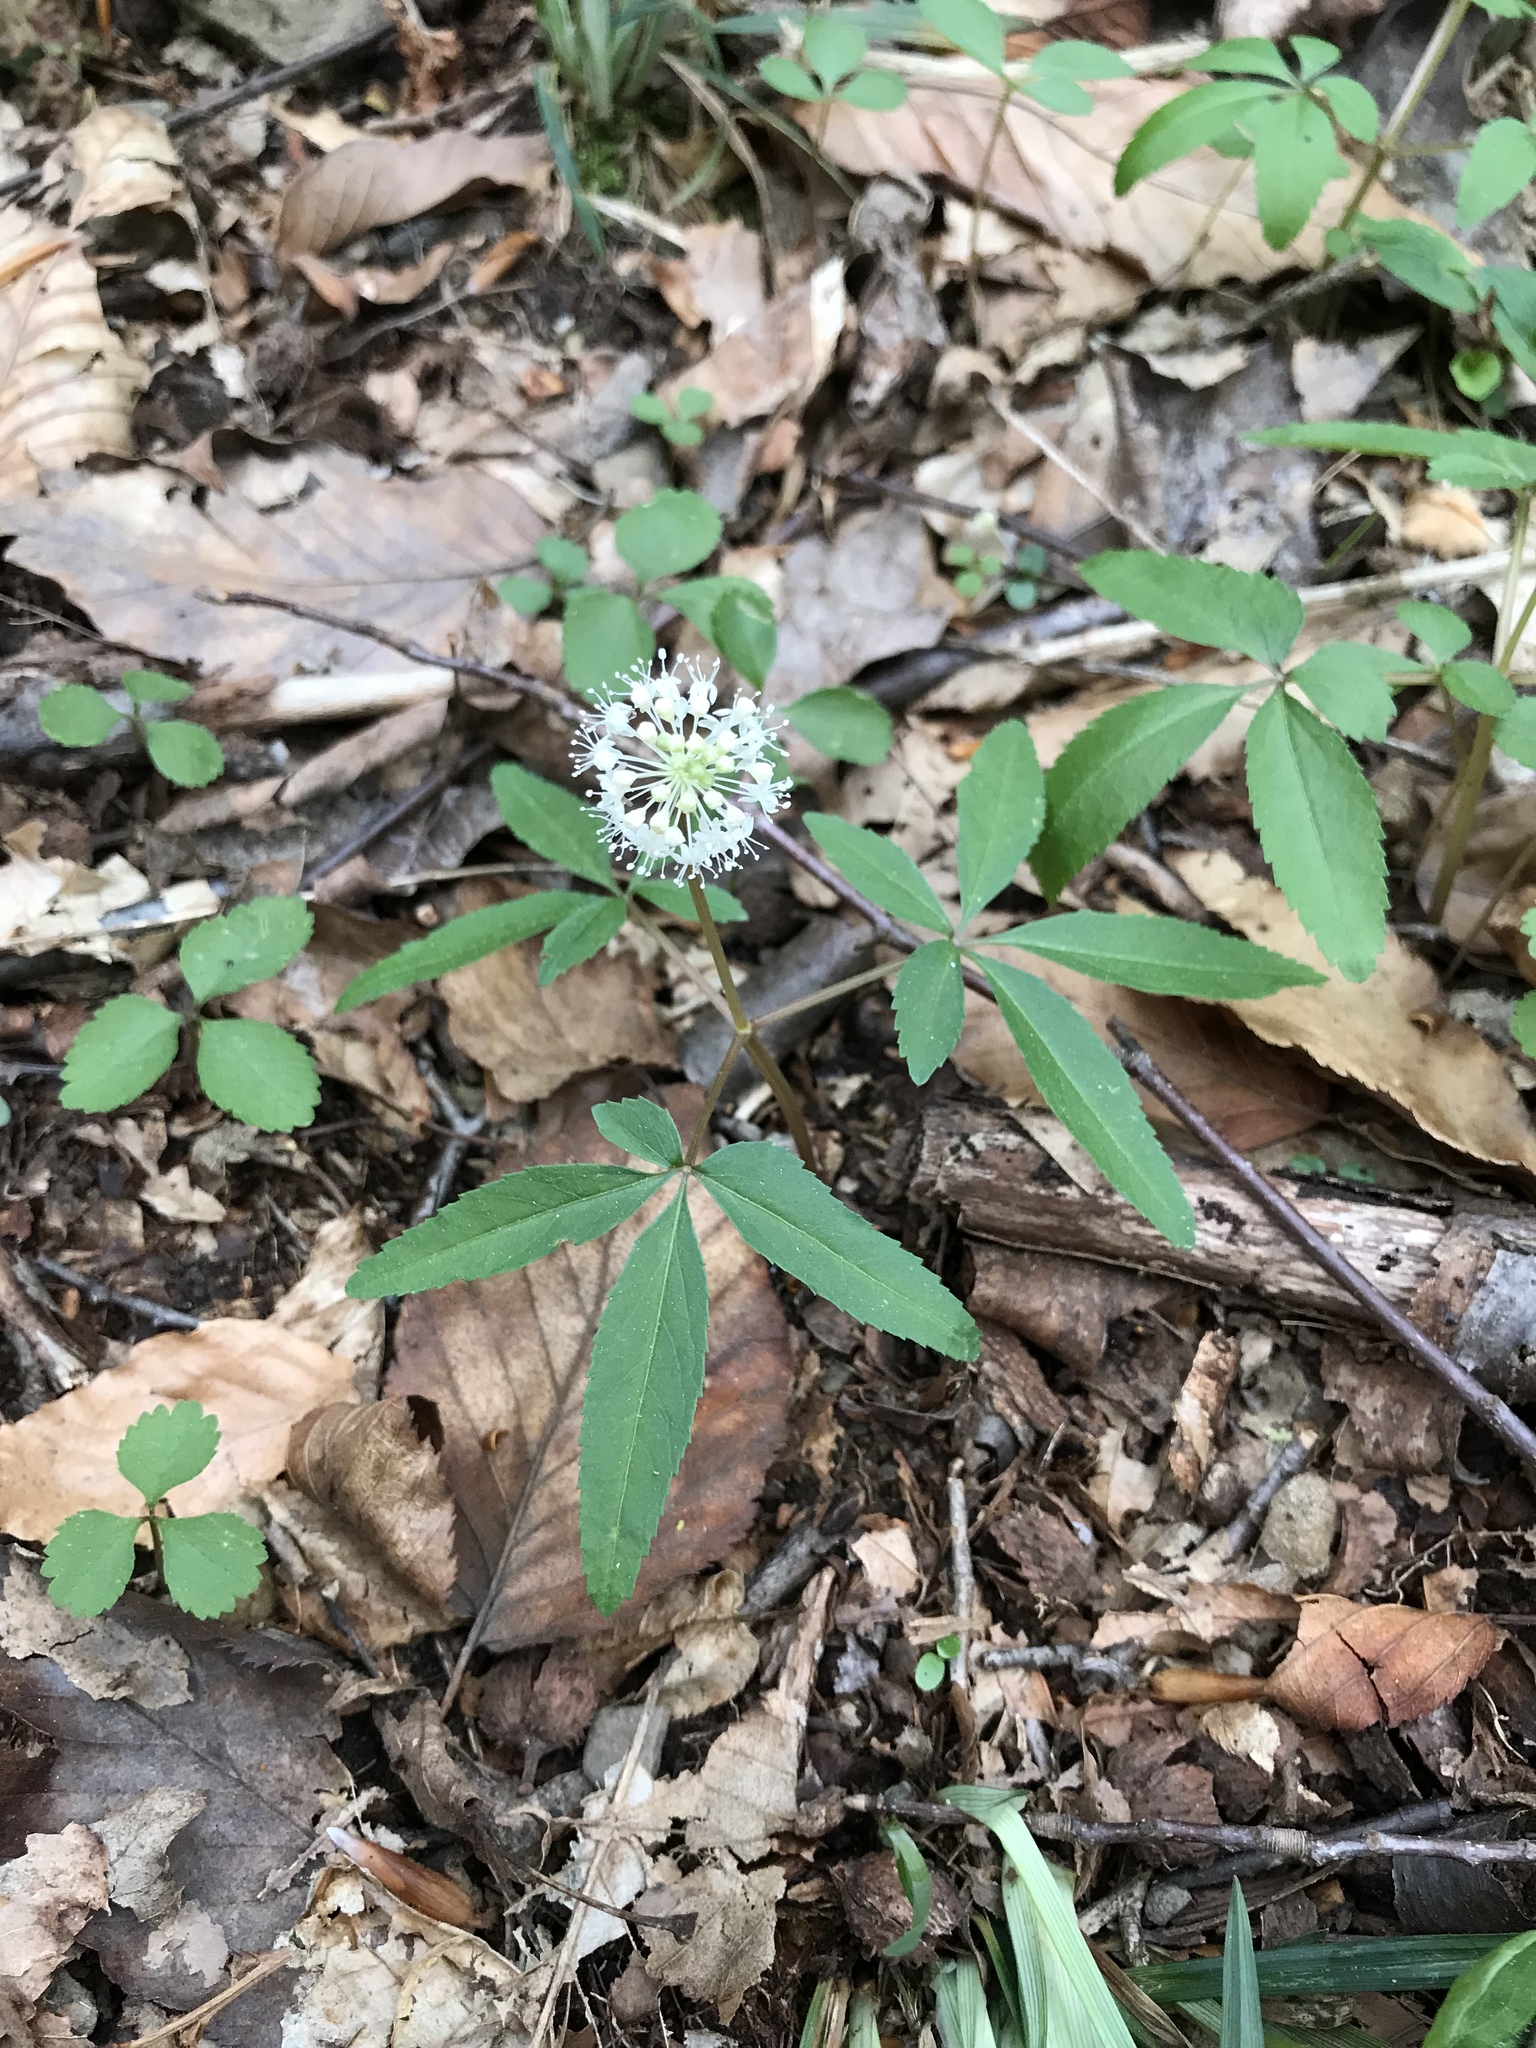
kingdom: Plantae
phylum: Tracheophyta
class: Magnoliopsida
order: Apiales
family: Araliaceae
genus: Panax
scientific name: Panax trifolius
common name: Dwarf ginseng
